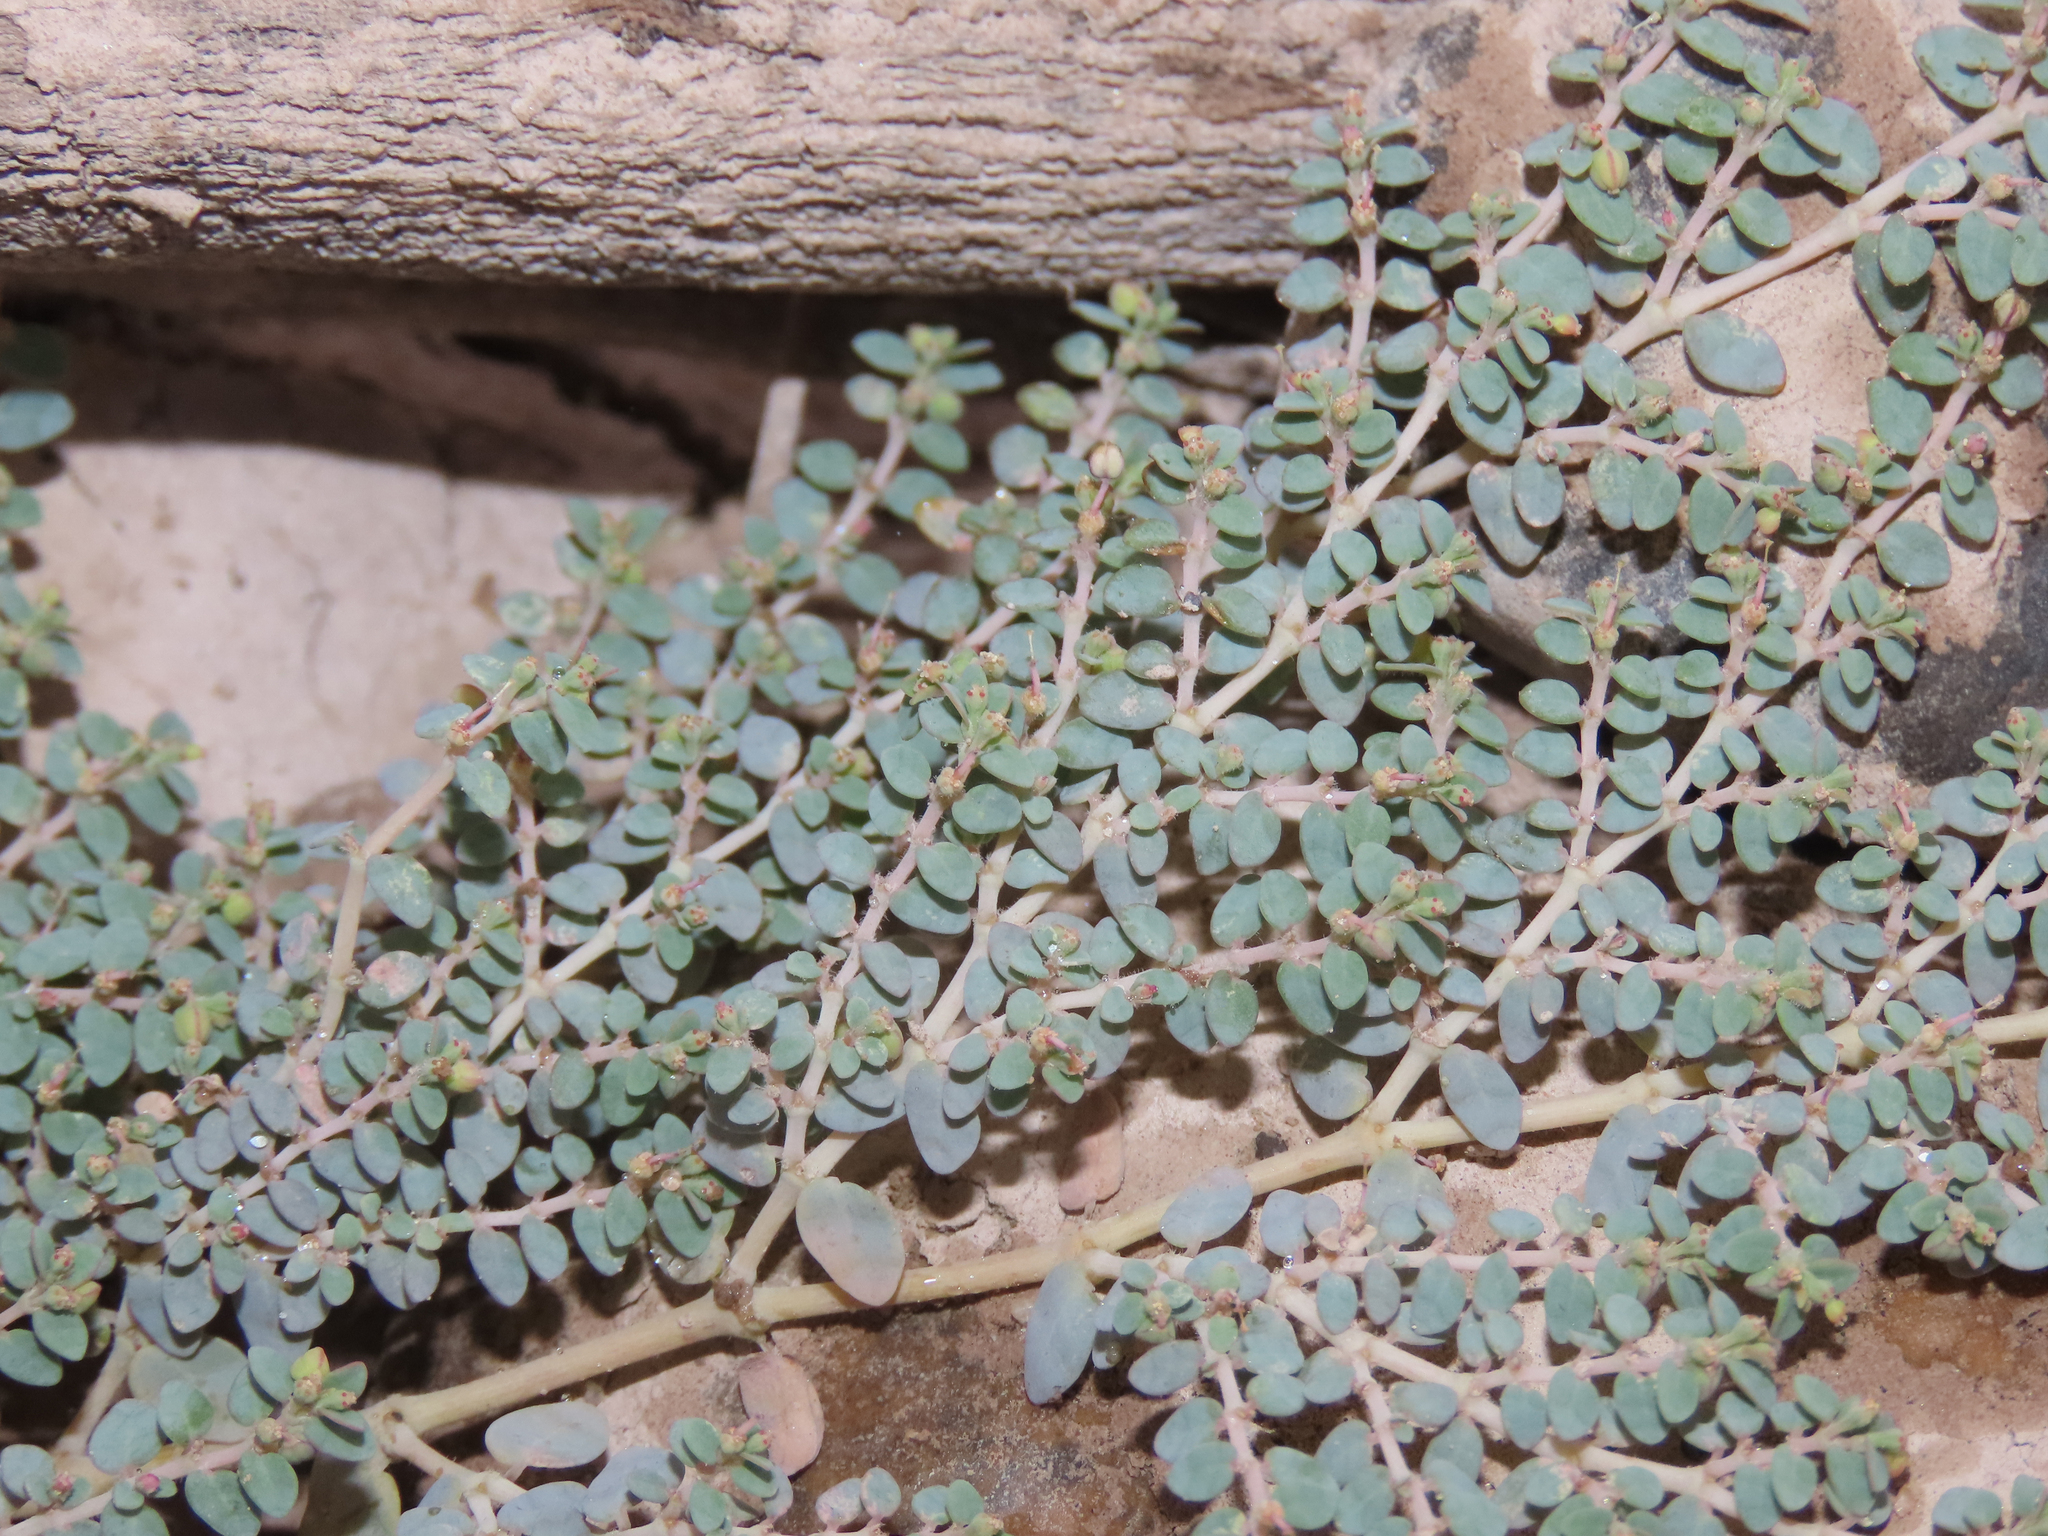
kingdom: Plantae
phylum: Tracheophyta
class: Magnoliopsida
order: Malpighiales
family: Euphorbiaceae
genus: Euphorbia
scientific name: Euphorbia micromera
